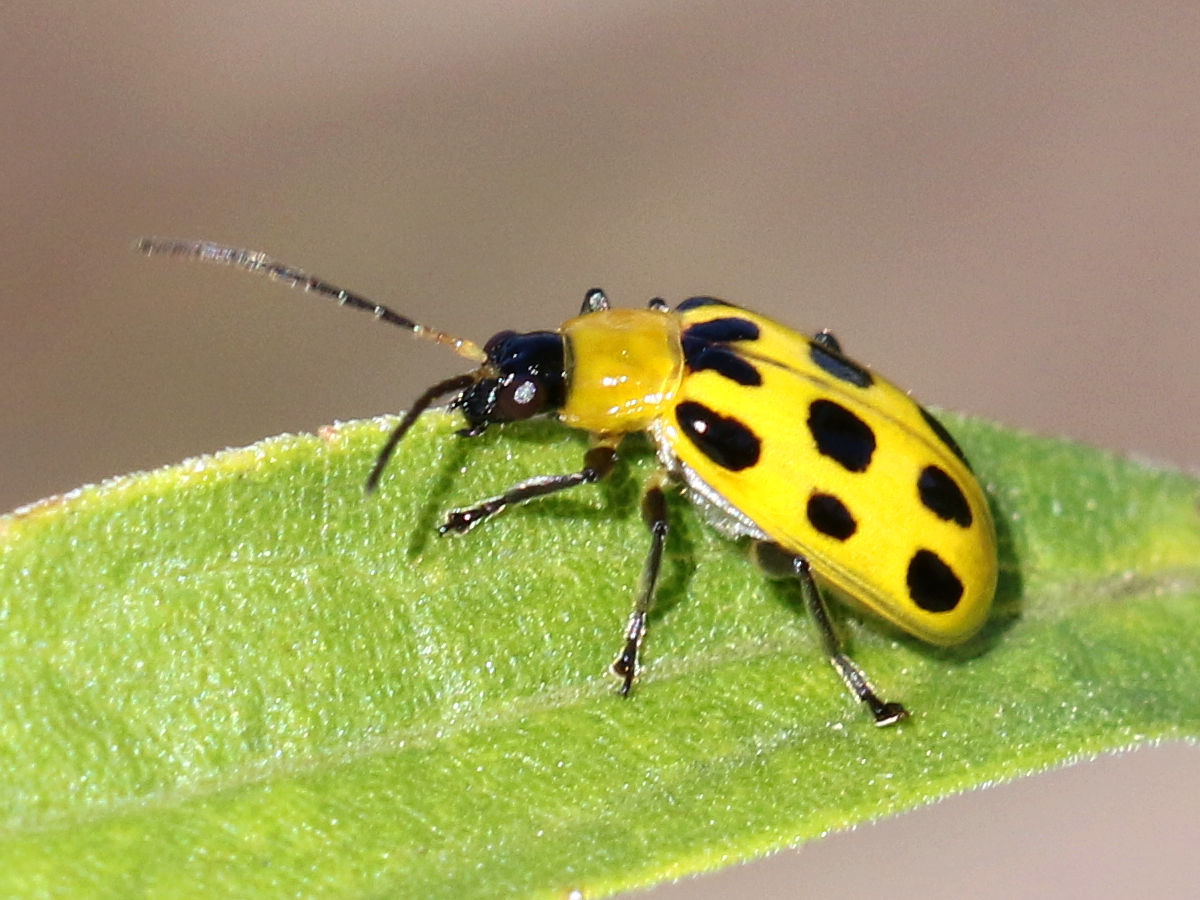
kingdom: Animalia
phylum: Arthropoda
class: Insecta
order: Coleoptera
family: Chrysomelidae
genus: Diabrotica
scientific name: Diabrotica undecimpunctata
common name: Spotted cucumber beetle
